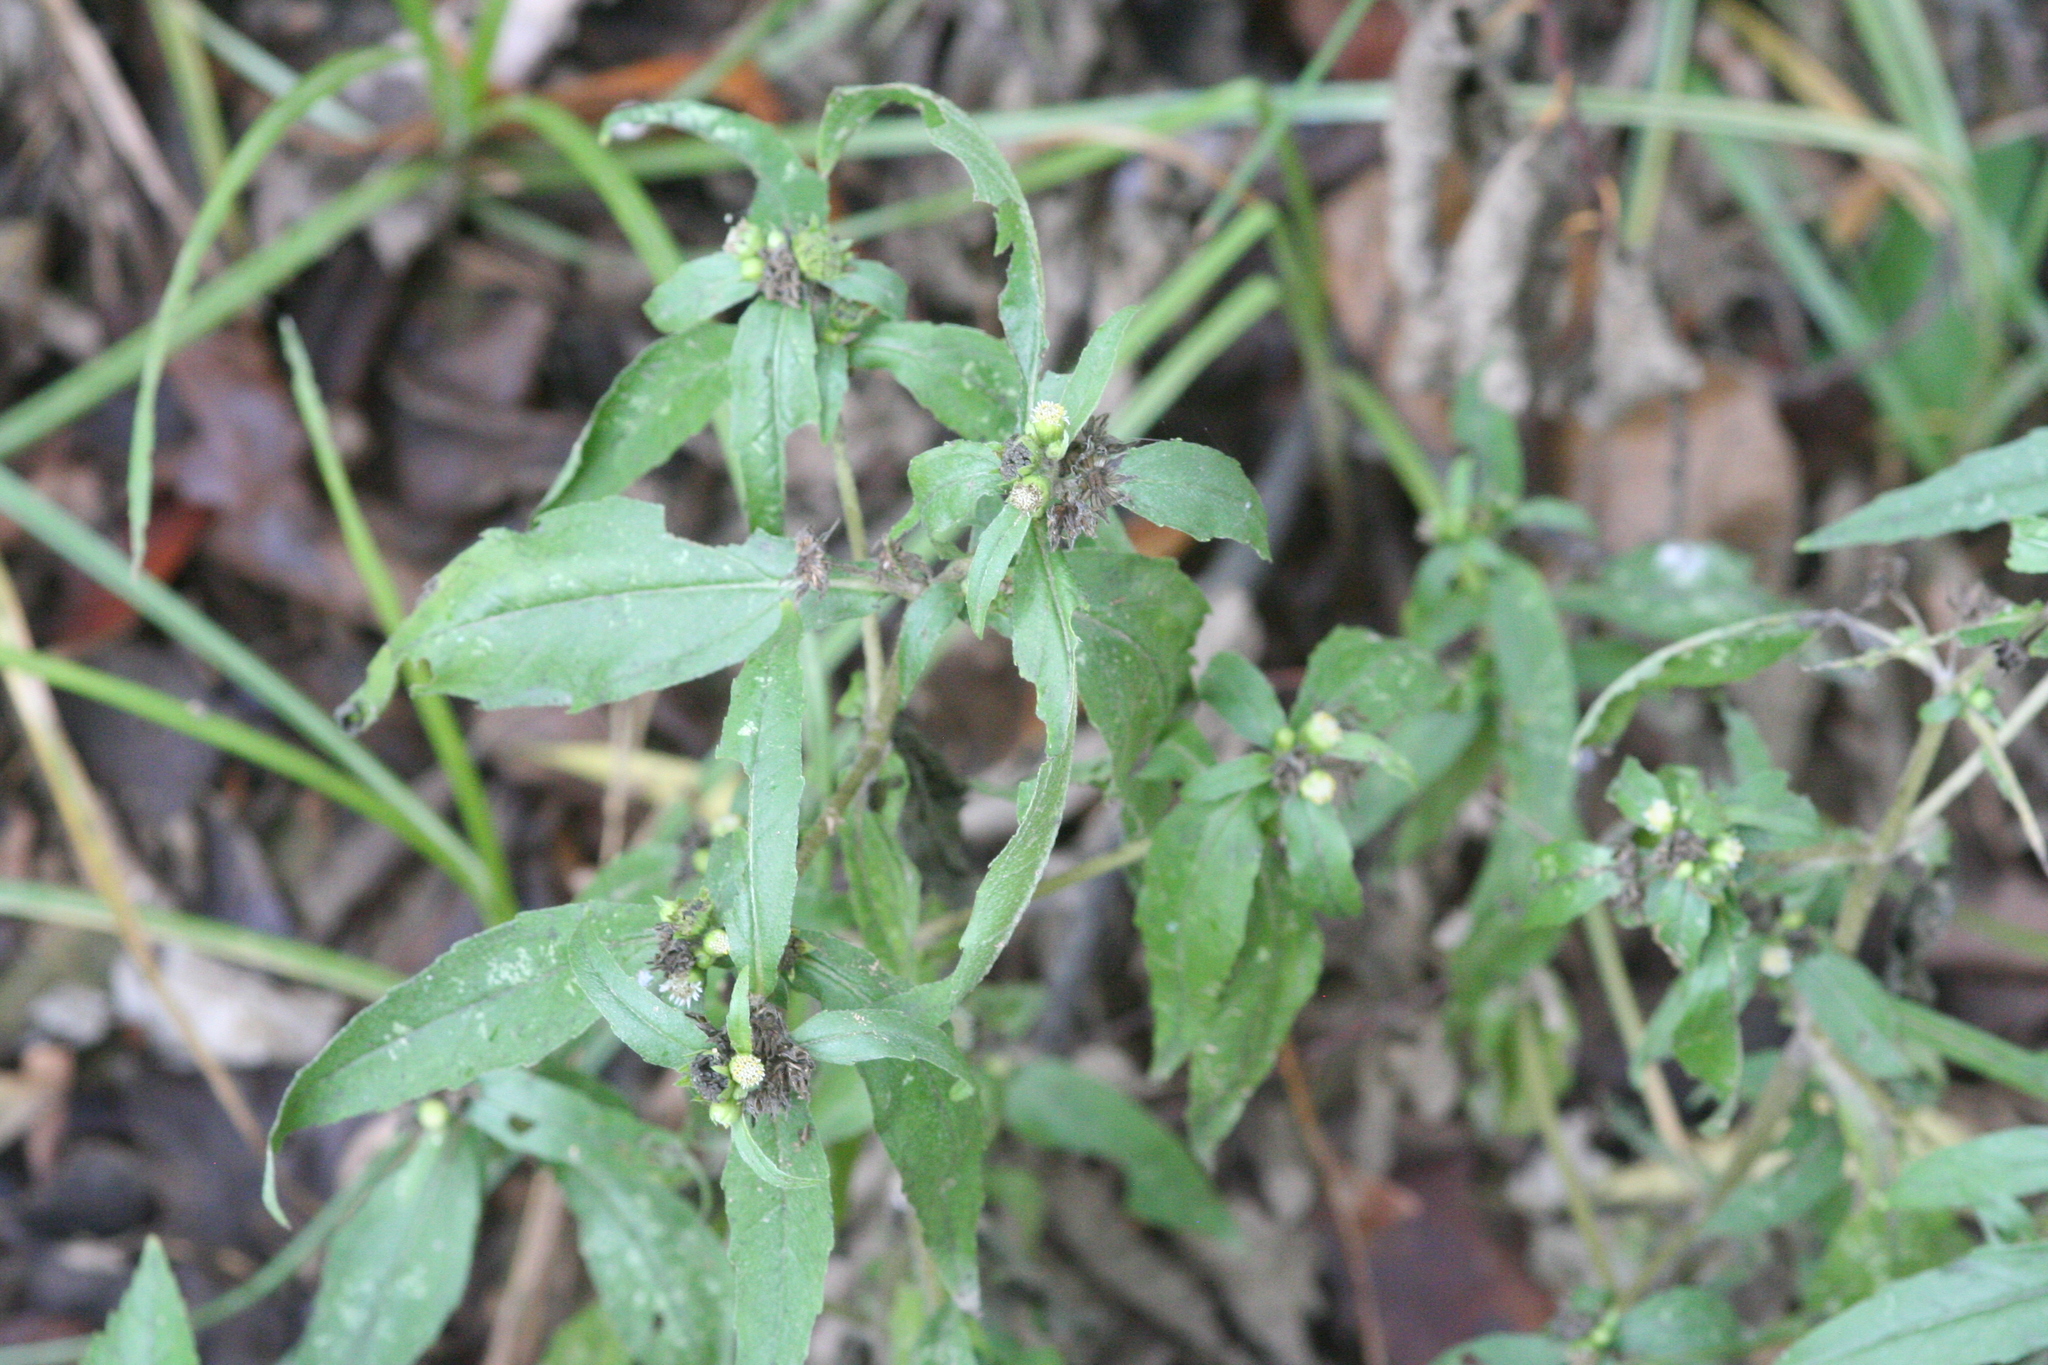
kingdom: Plantae
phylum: Tracheophyta
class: Magnoliopsida
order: Asterales
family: Asteraceae
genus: Eclipta
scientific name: Eclipta prostrata
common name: False daisy
